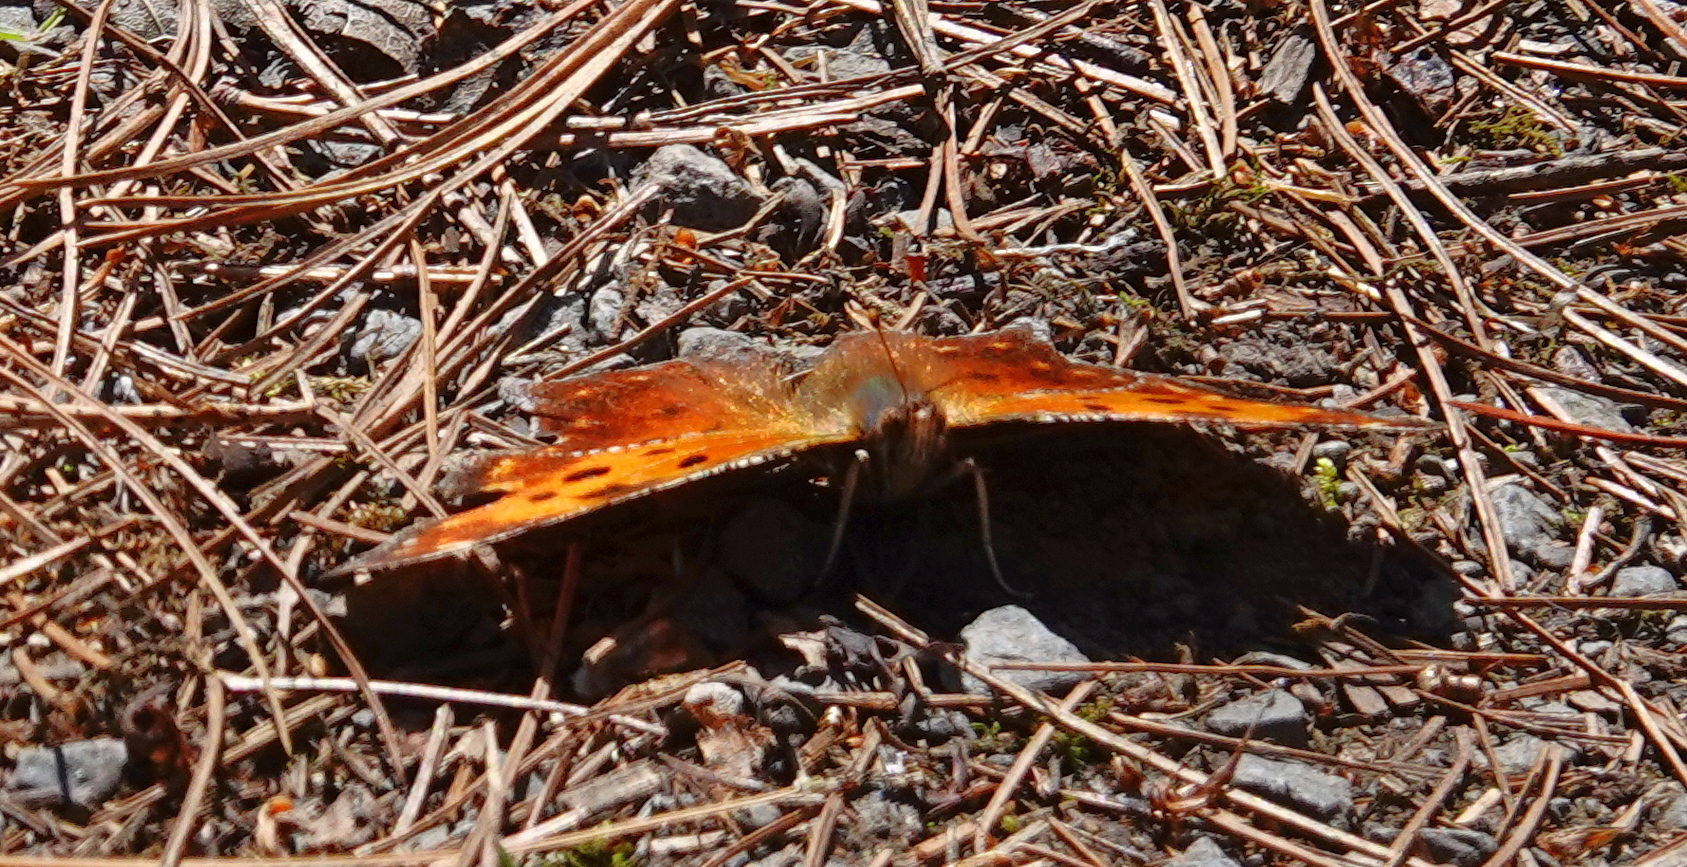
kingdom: Animalia
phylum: Arthropoda
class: Insecta
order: Lepidoptera
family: Nymphalidae
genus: Polygonia
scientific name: Polygonia comma
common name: Eastern comma
